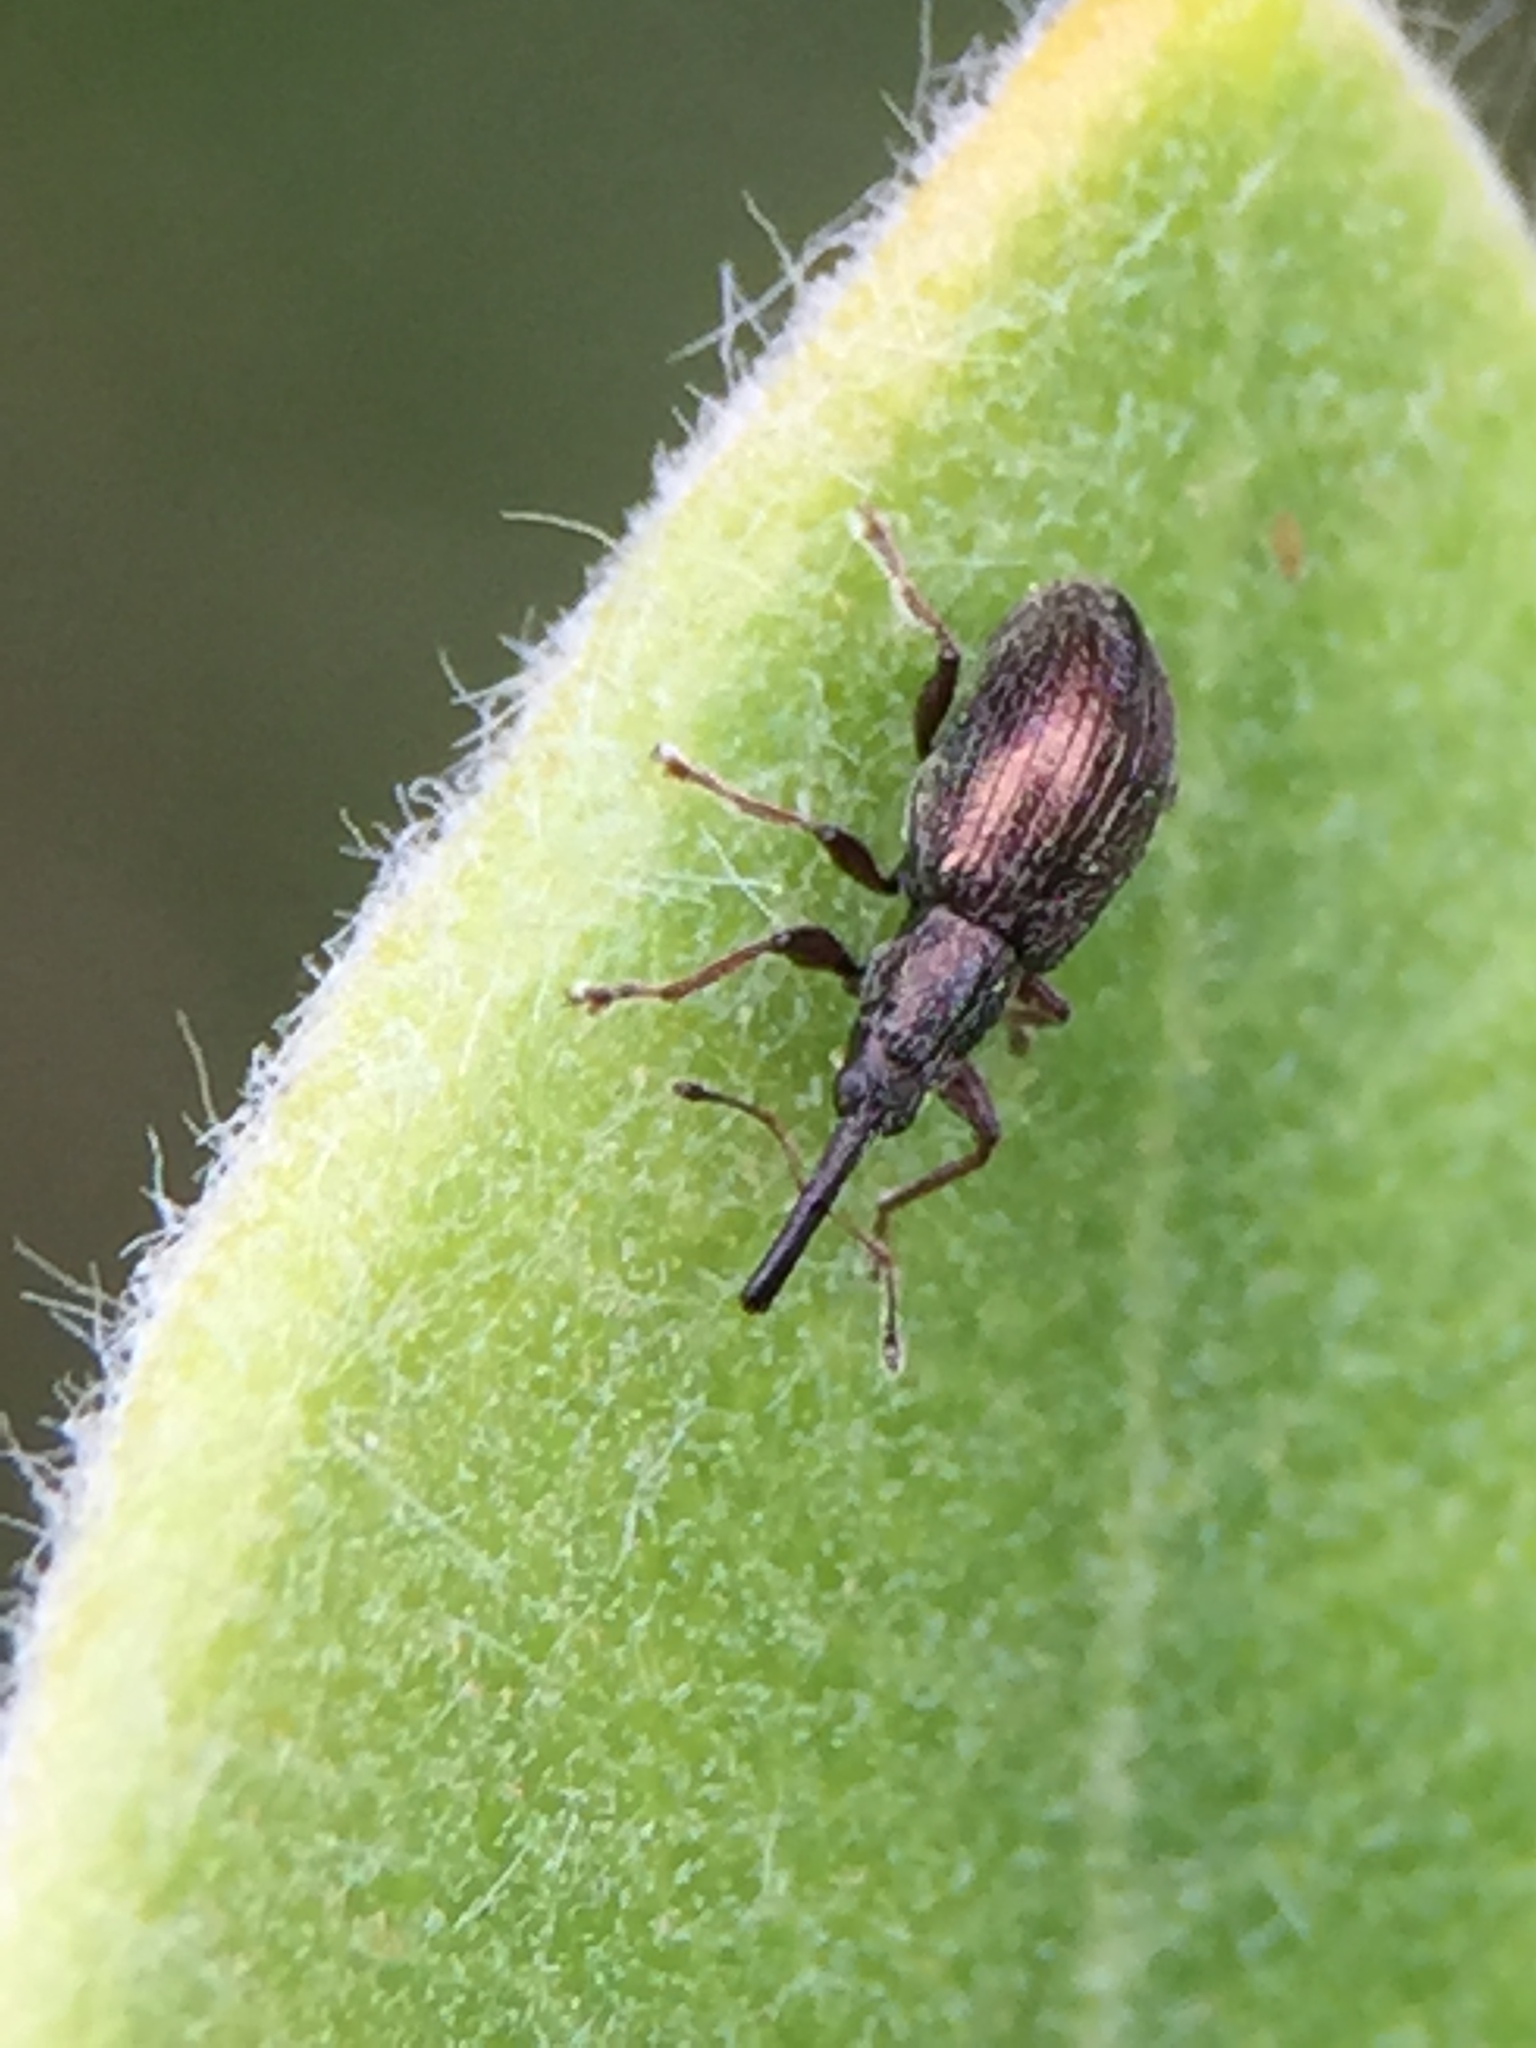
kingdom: Animalia
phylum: Arthropoda
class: Insecta
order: Coleoptera
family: Brentidae
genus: Neocyba
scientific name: Neocyba metrosideros
